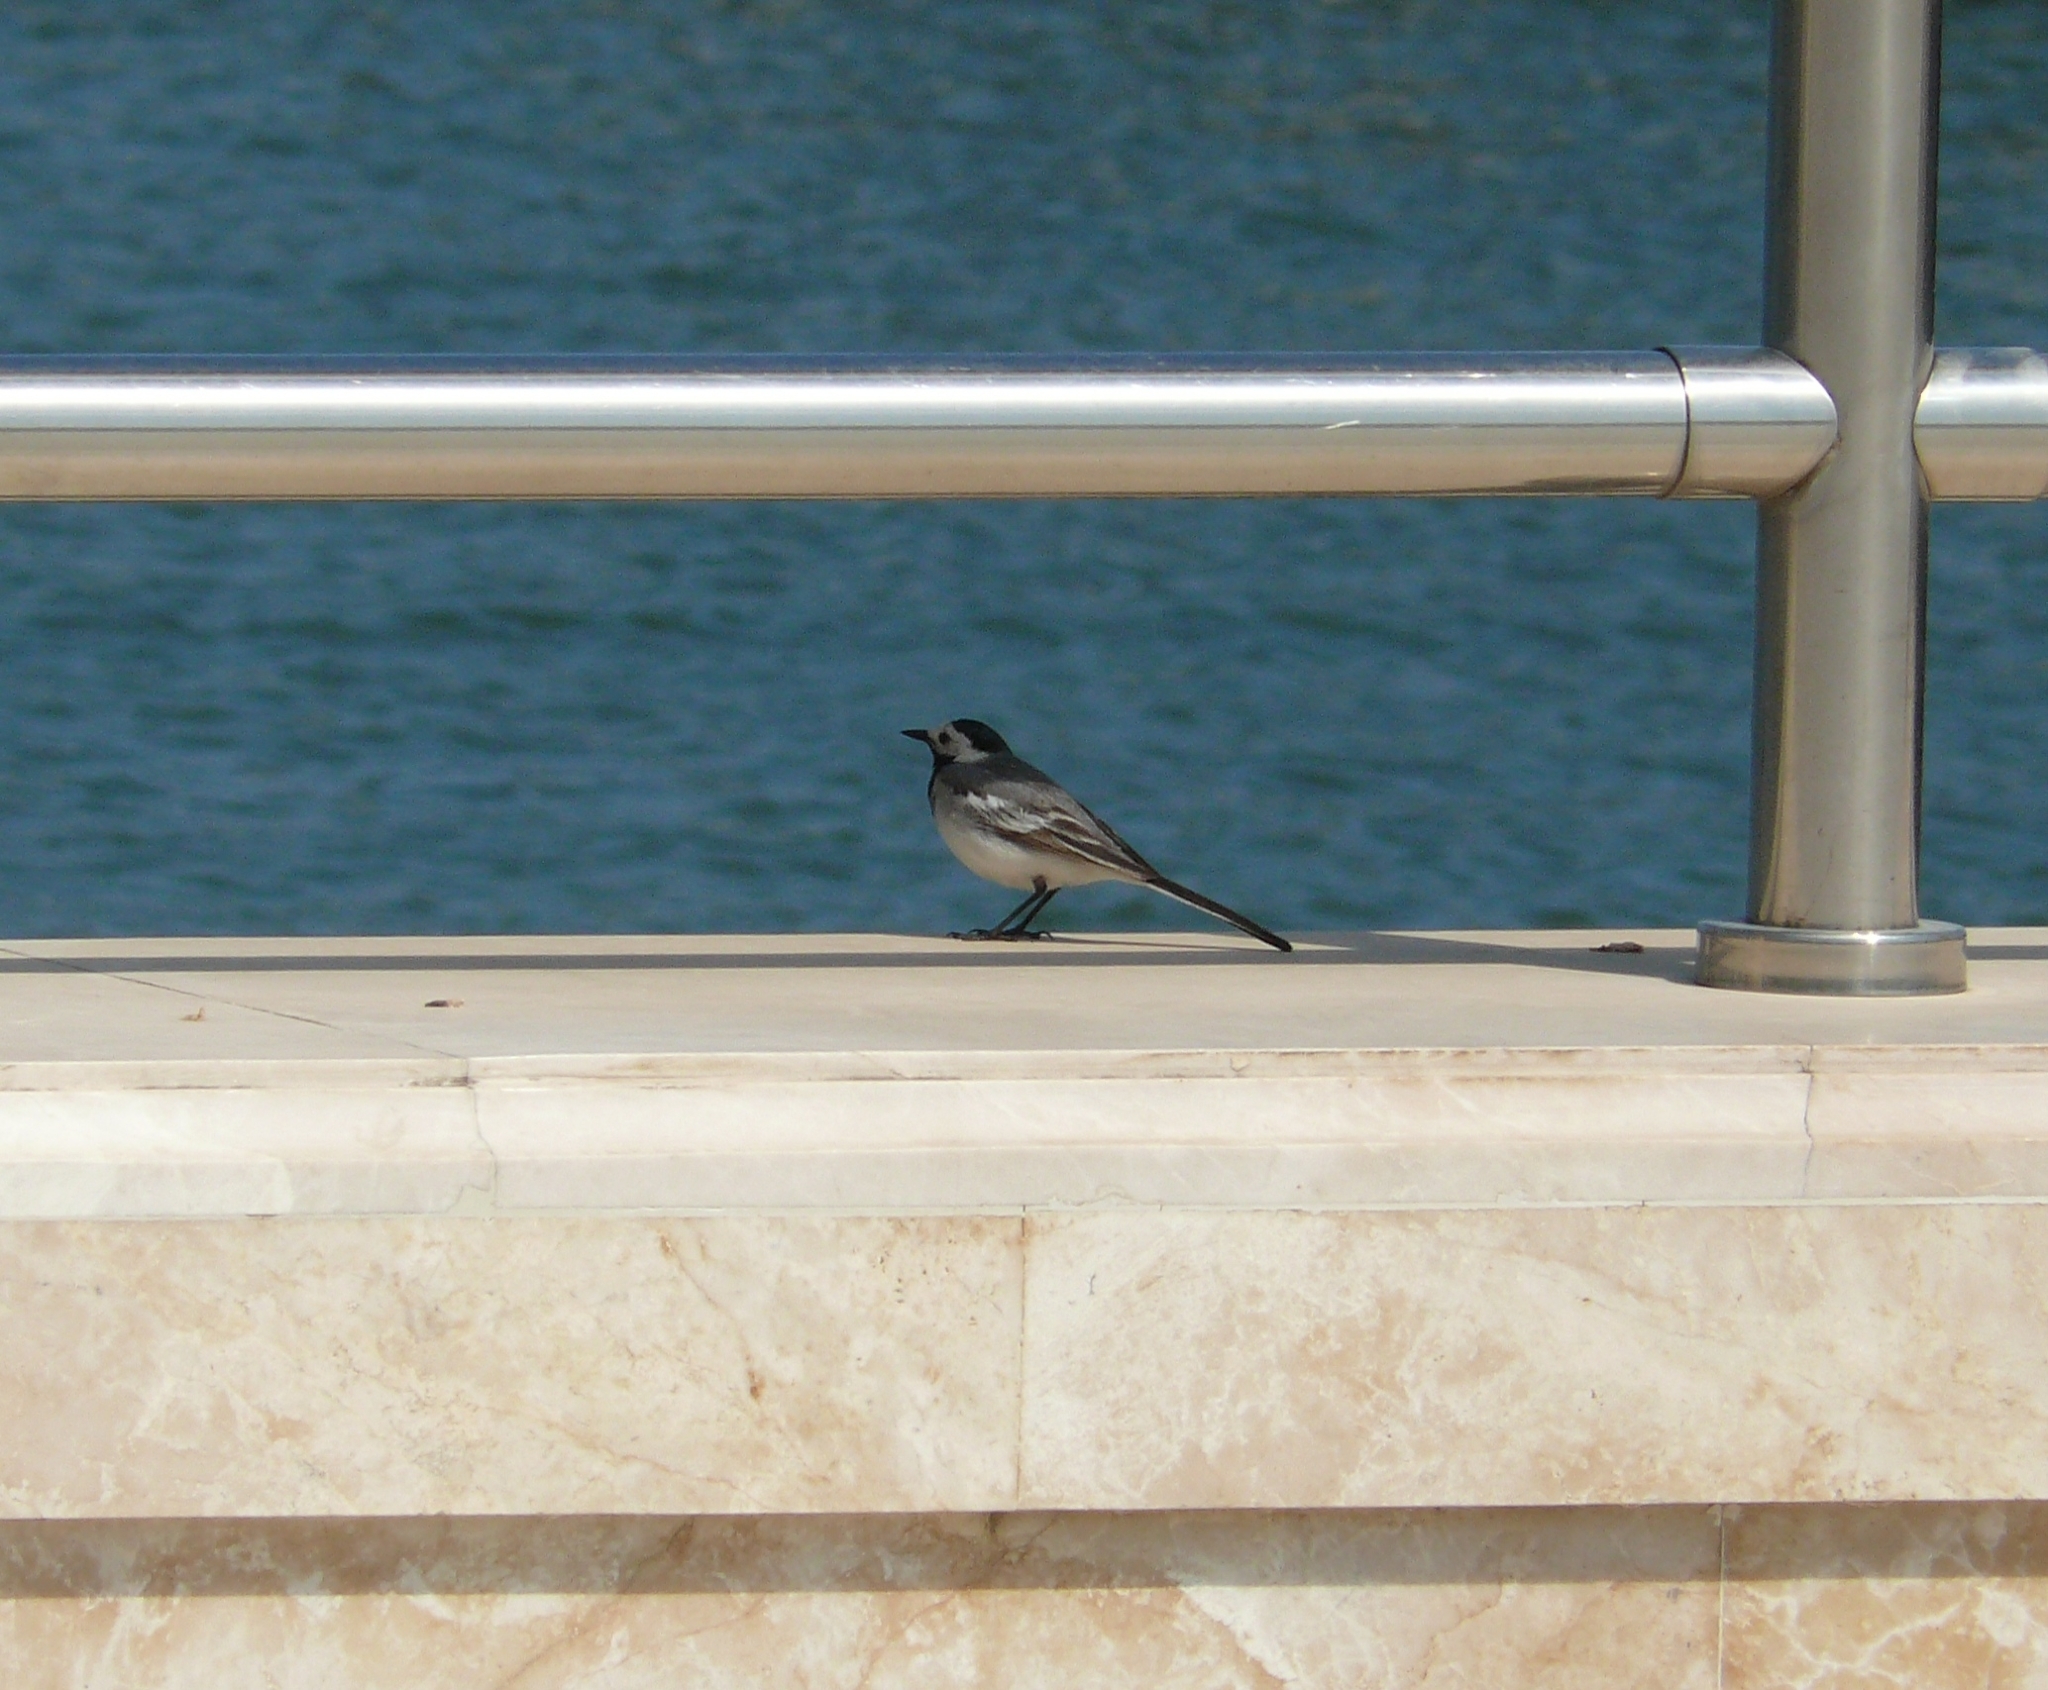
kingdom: Animalia
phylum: Chordata
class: Aves
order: Passeriformes
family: Motacillidae
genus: Motacilla
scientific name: Motacilla alba
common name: White wagtail
